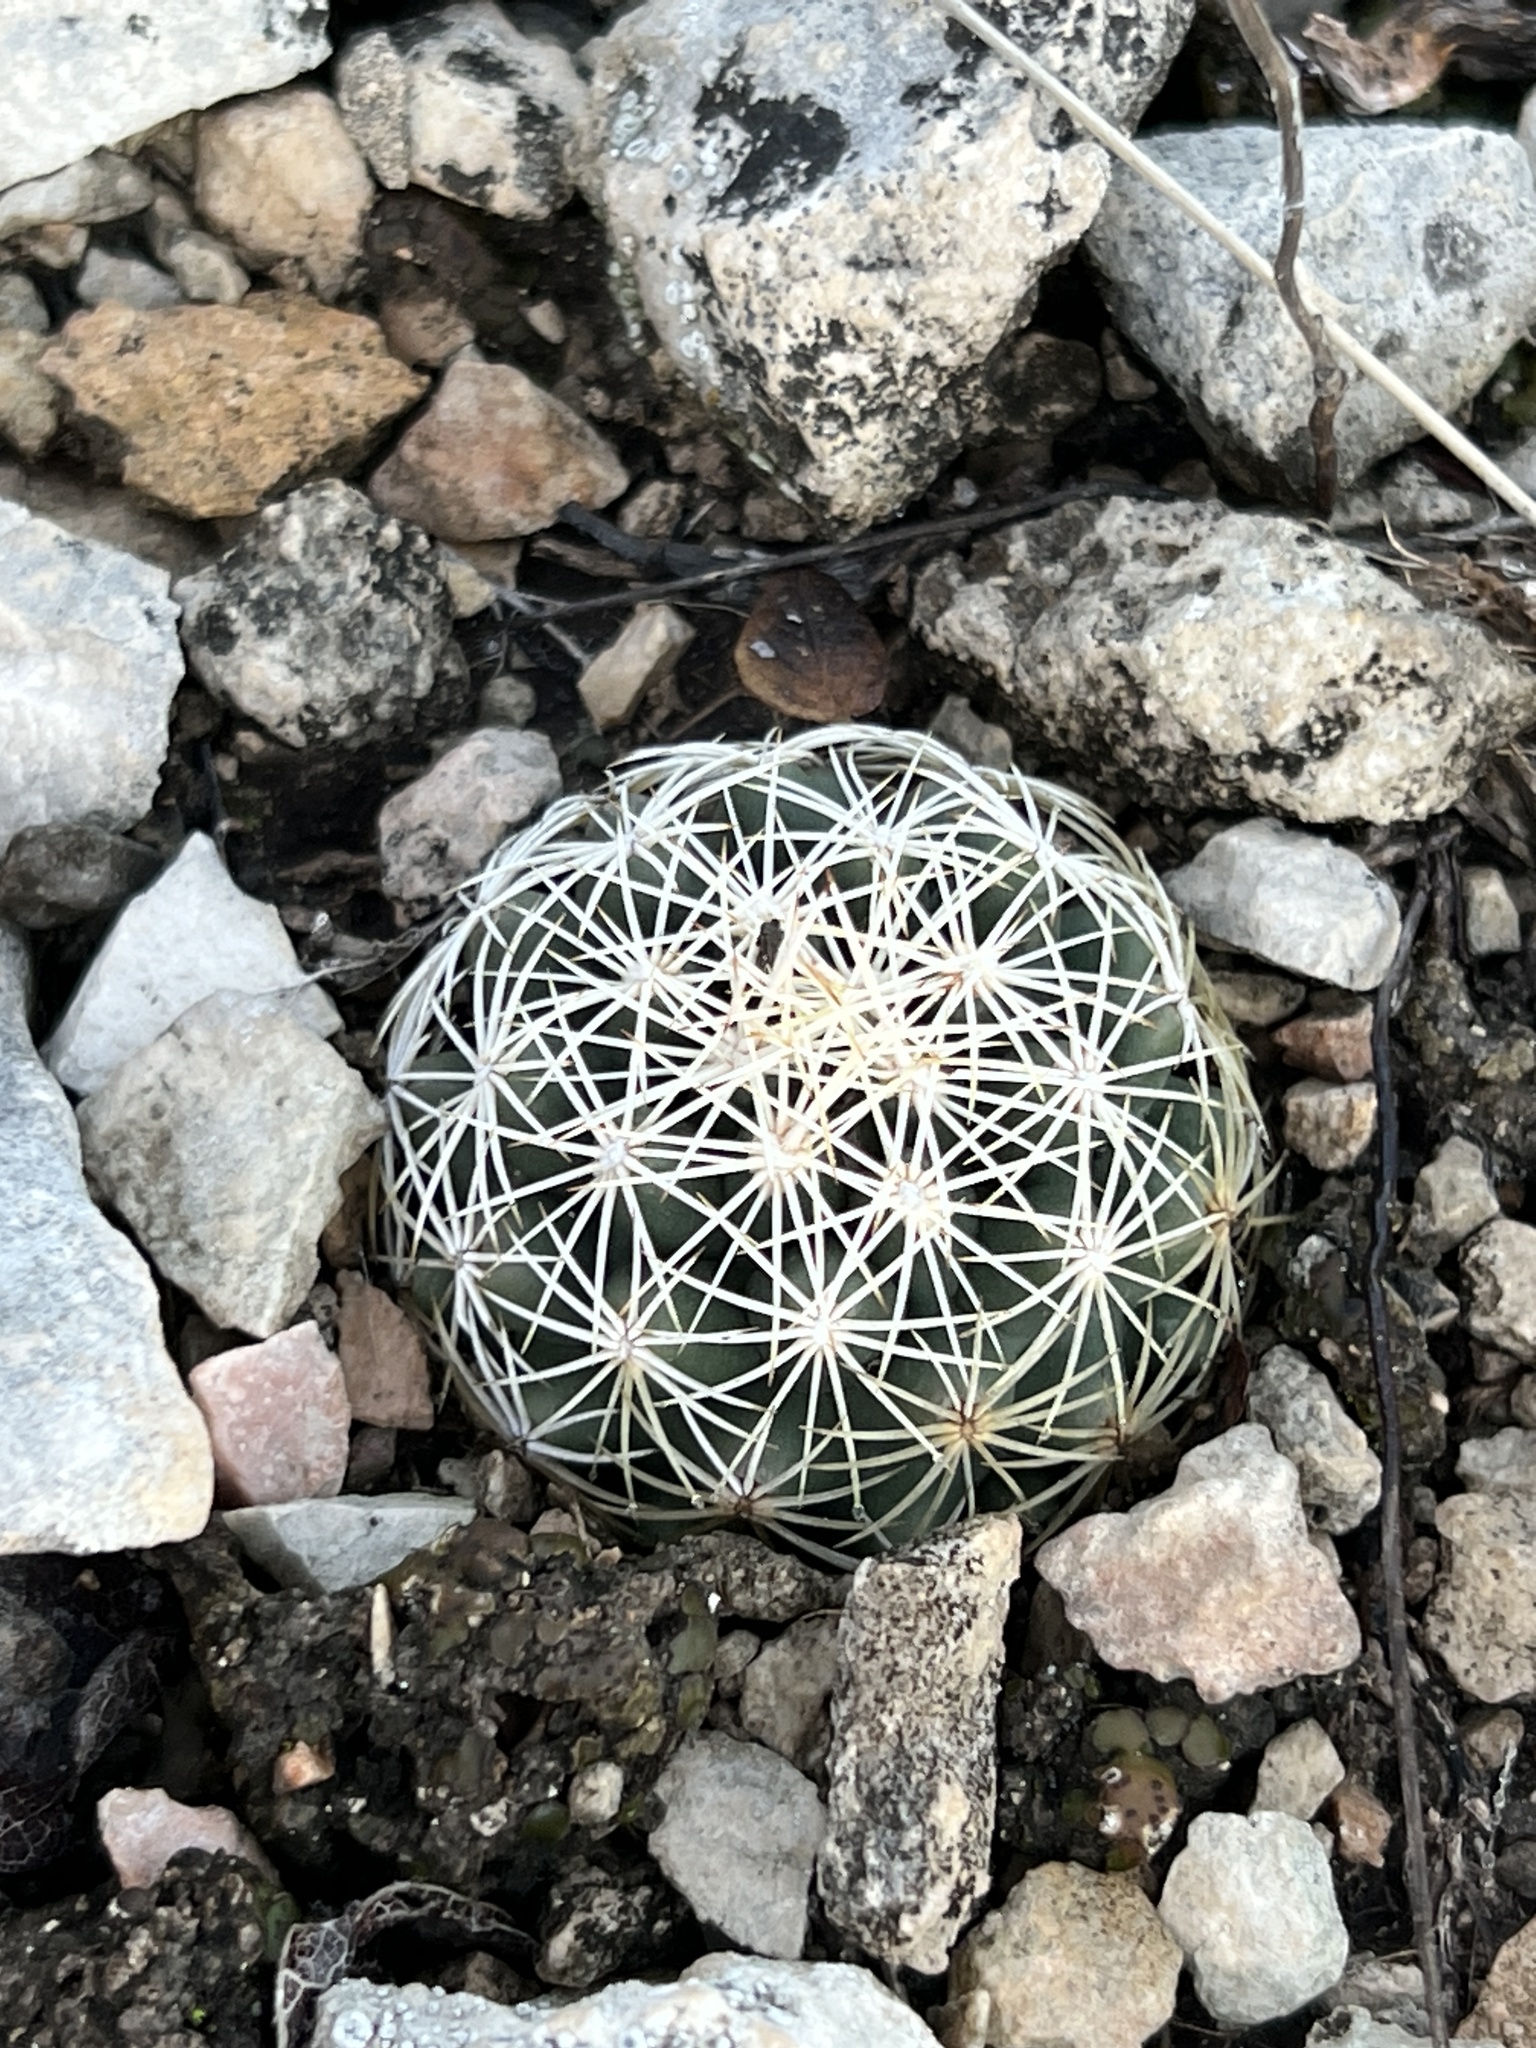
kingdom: Plantae
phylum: Tracheophyta
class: Magnoliopsida
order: Caryophyllales
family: Cactaceae
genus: Coryphantha
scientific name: Coryphantha echinus
